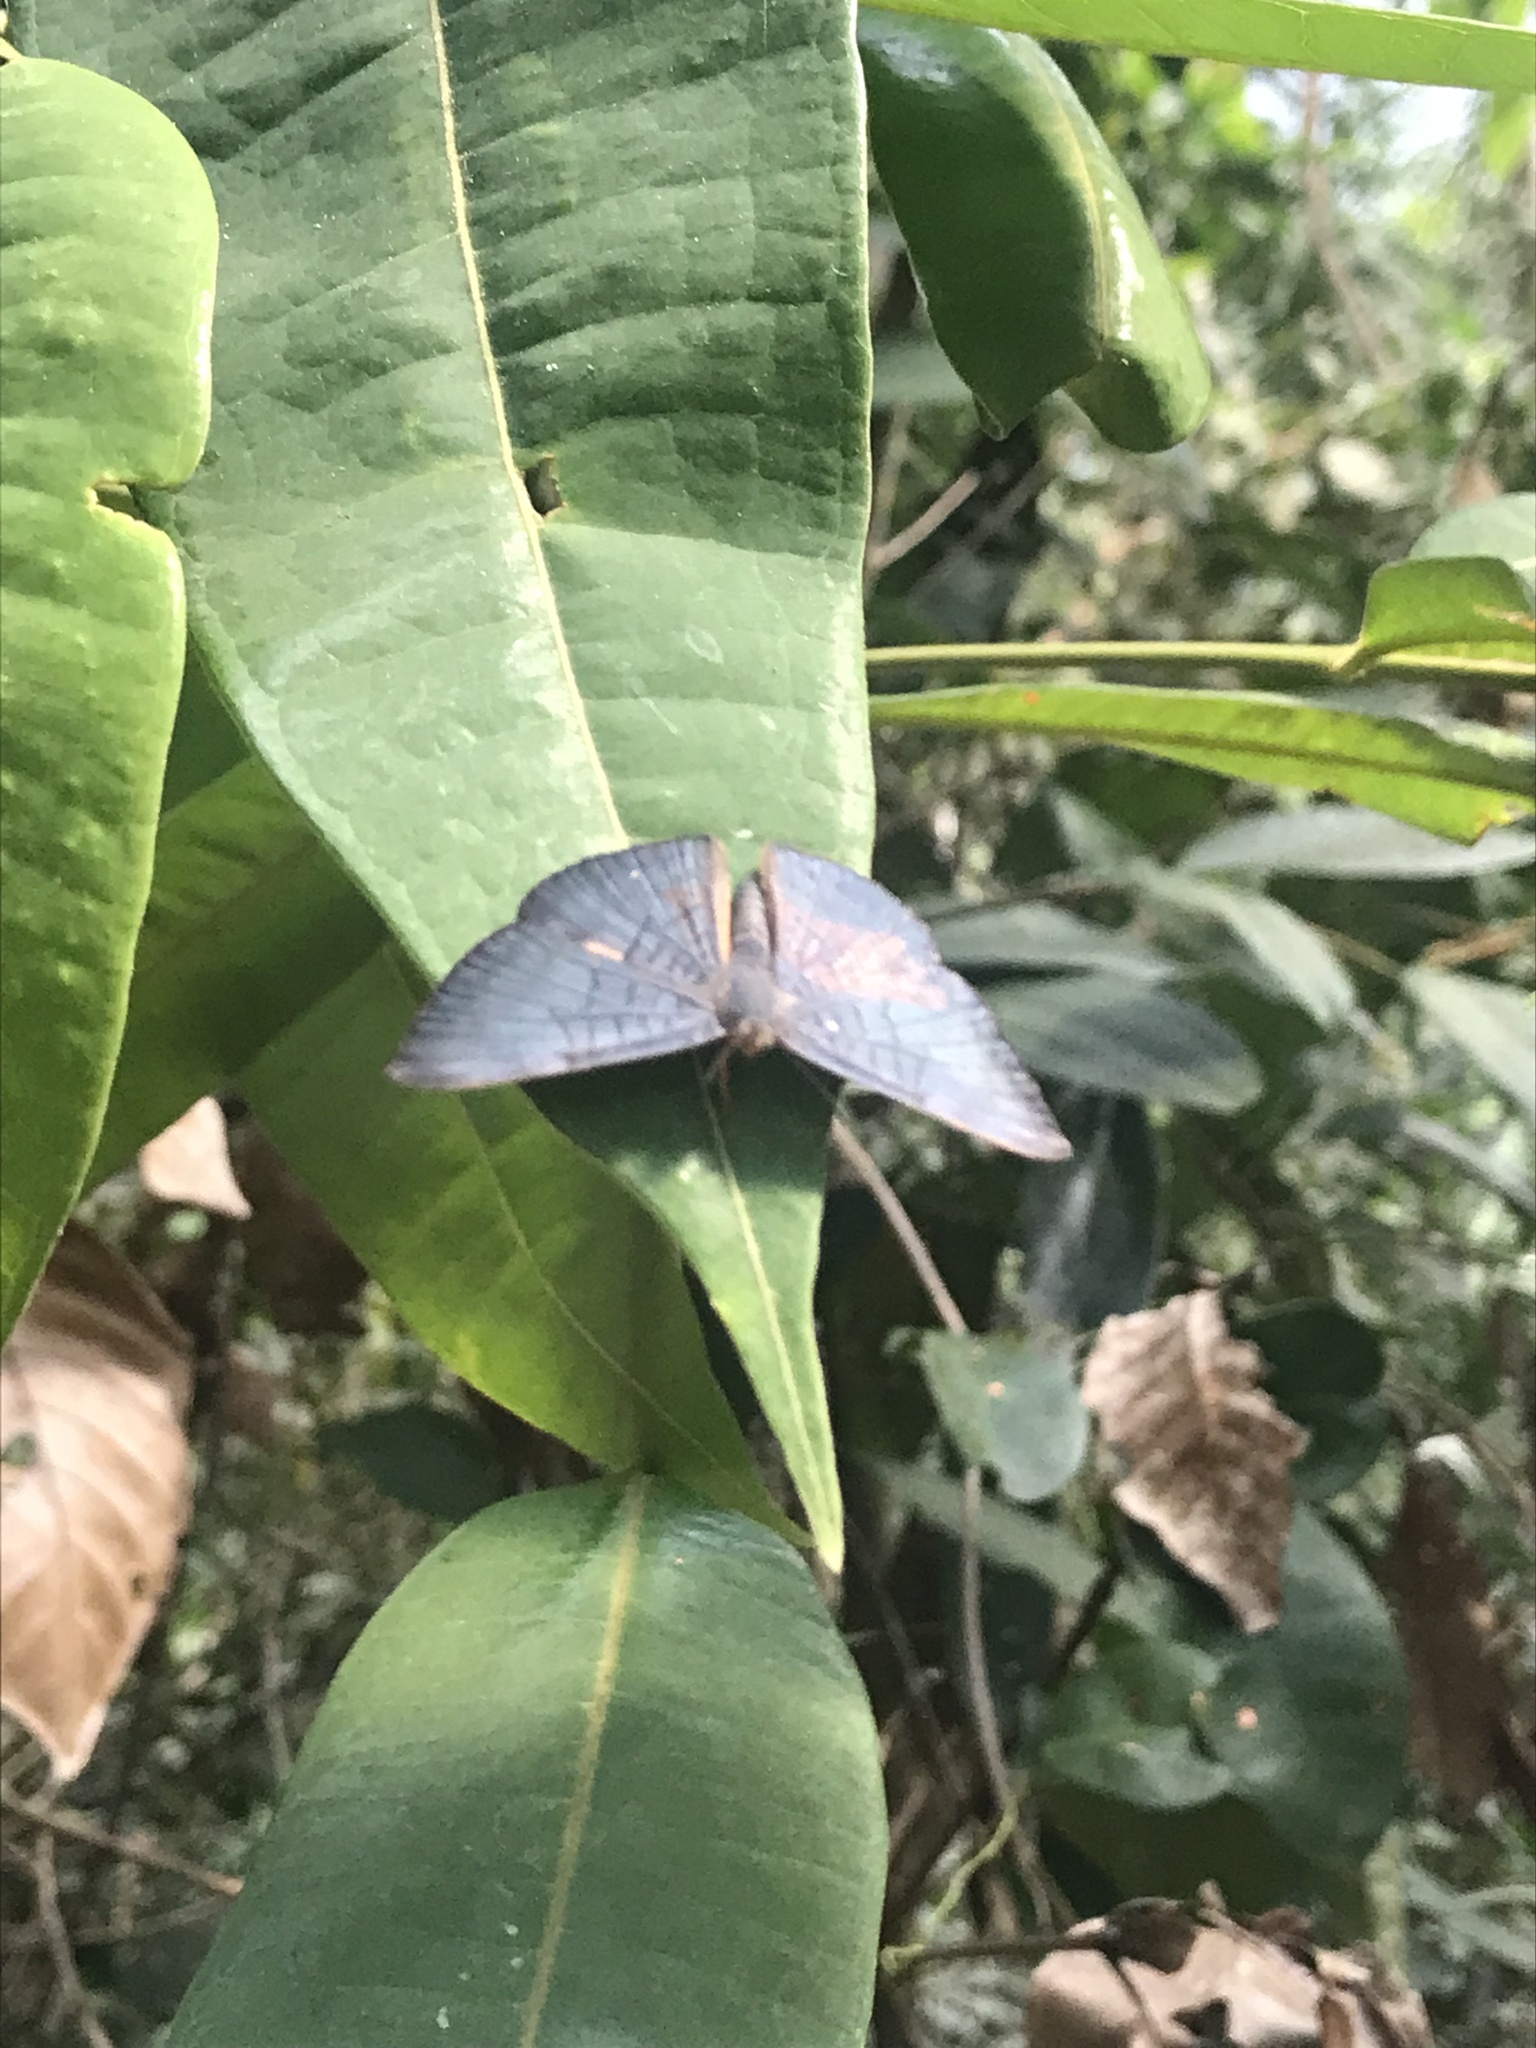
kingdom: Animalia
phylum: Arthropoda
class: Insecta
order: Lepidoptera
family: Lycaenidae
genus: Emesis
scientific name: Emesis lucinda
